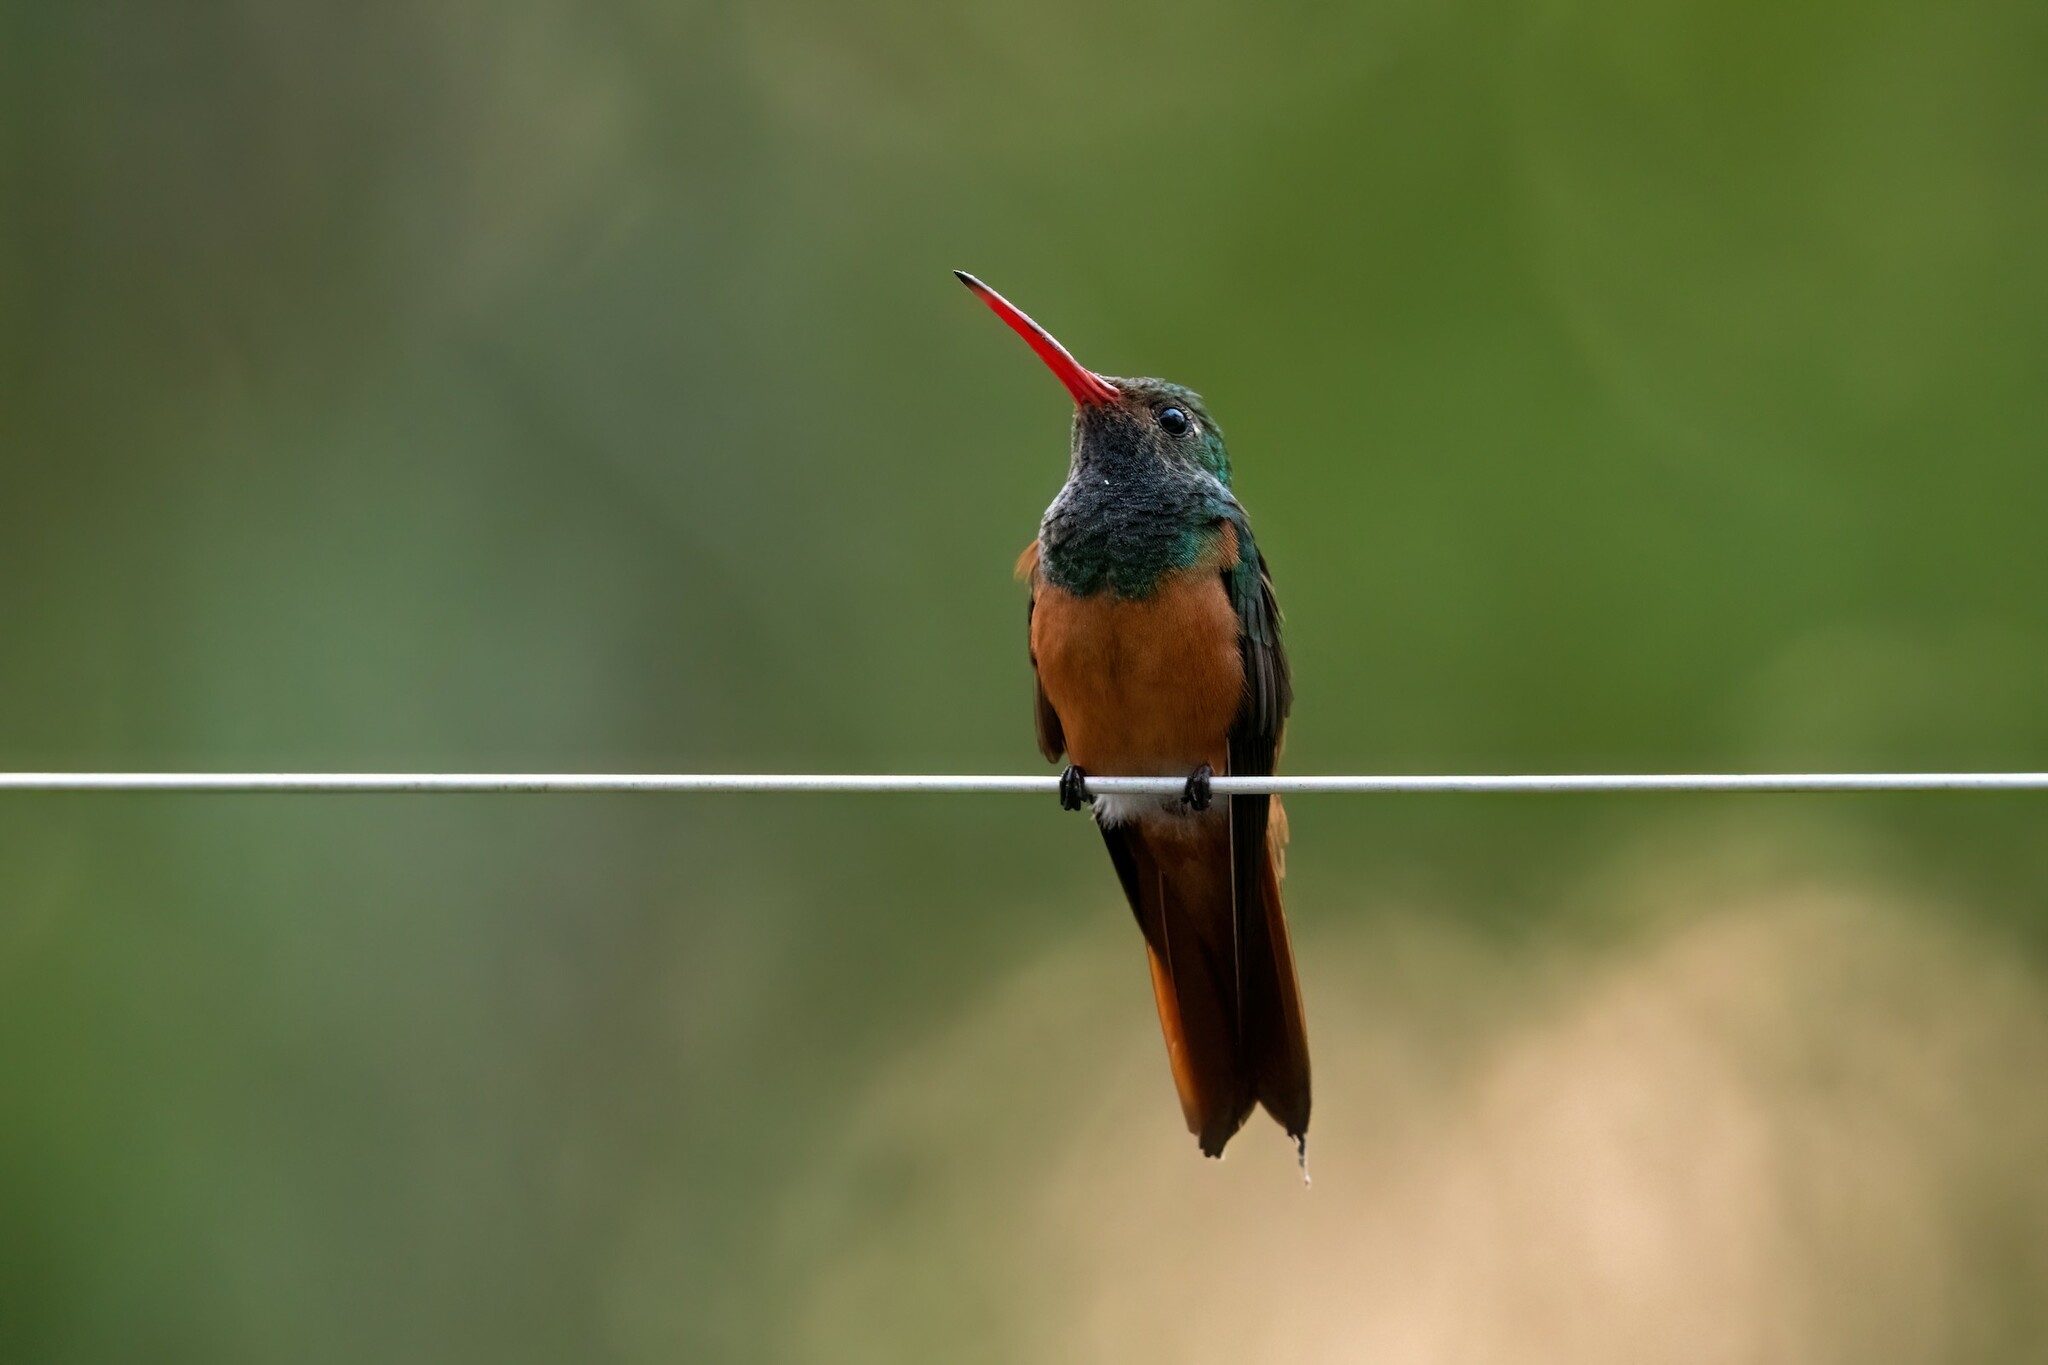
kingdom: Animalia
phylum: Chordata
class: Aves
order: Apodiformes
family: Trochilidae
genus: Amazilia
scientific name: Amazilia yucatanensis
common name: Buff-bellied hummingbird
